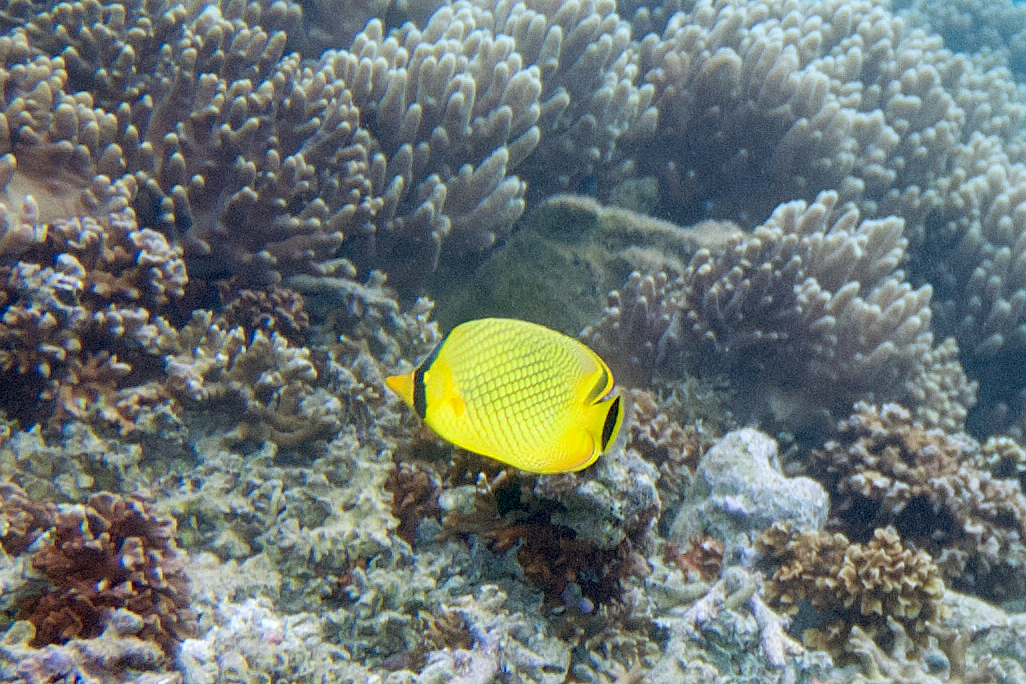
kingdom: Animalia
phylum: Chordata
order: Perciformes
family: Chaetodontidae
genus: Chaetodon
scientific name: Chaetodon rafflesii
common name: Latticed butterflyfish
